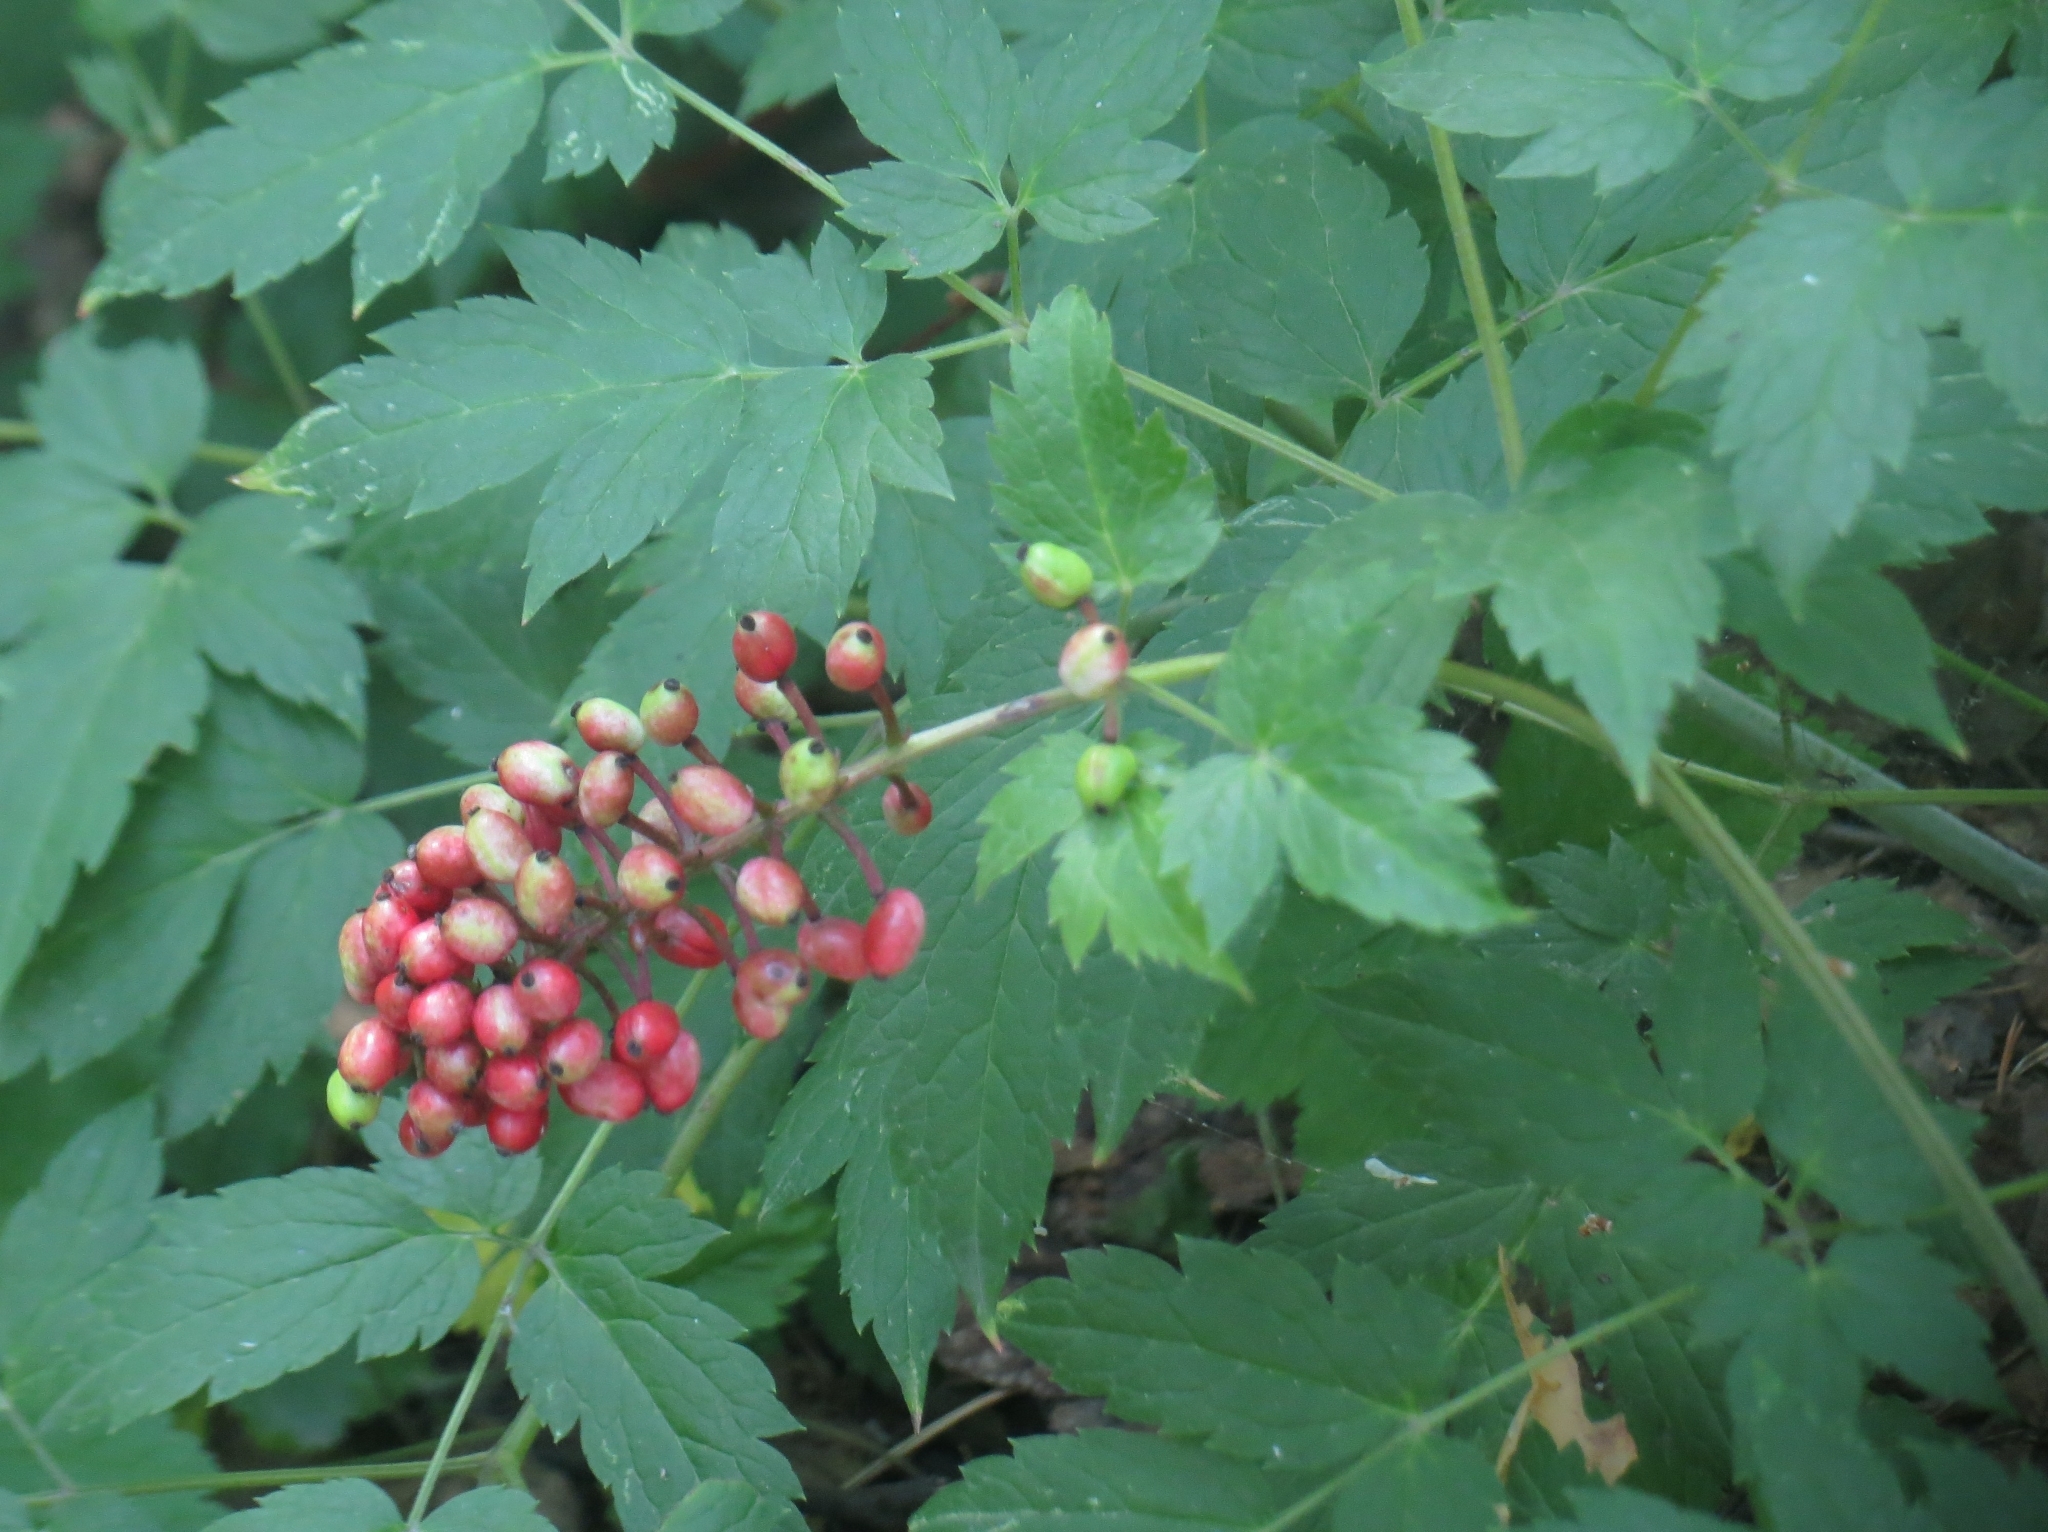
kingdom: Plantae
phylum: Tracheophyta
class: Magnoliopsida
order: Ranunculales
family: Ranunculaceae
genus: Actaea
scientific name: Actaea erythrocarpa
